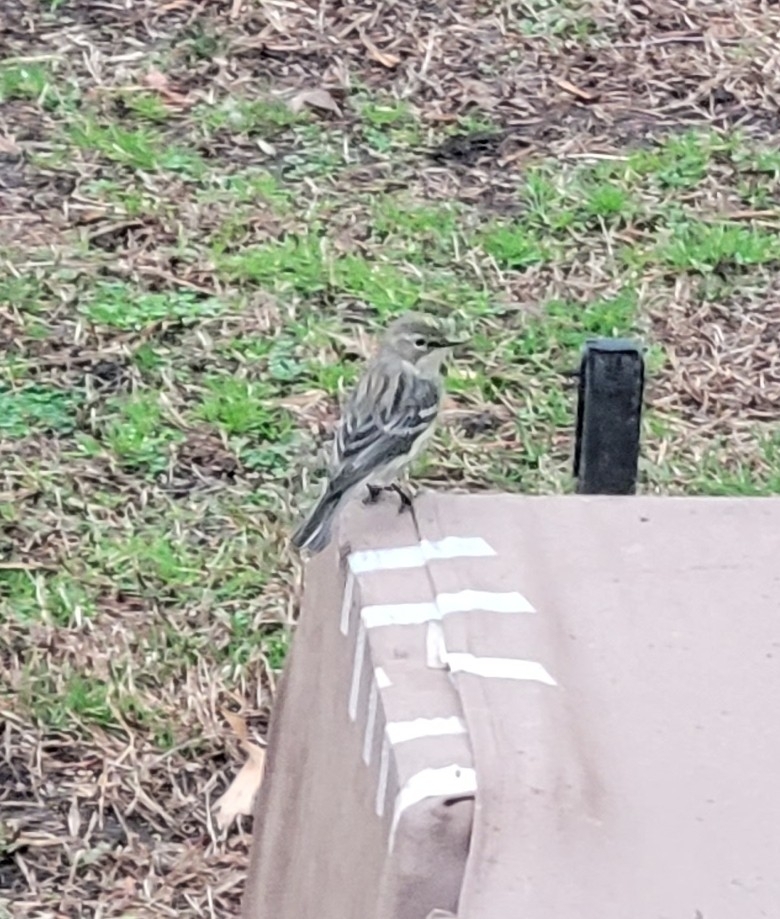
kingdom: Animalia
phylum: Chordata
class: Aves
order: Passeriformes
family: Parulidae
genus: Setophaga
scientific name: Setophaga coronata
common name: Myrtle warbler
